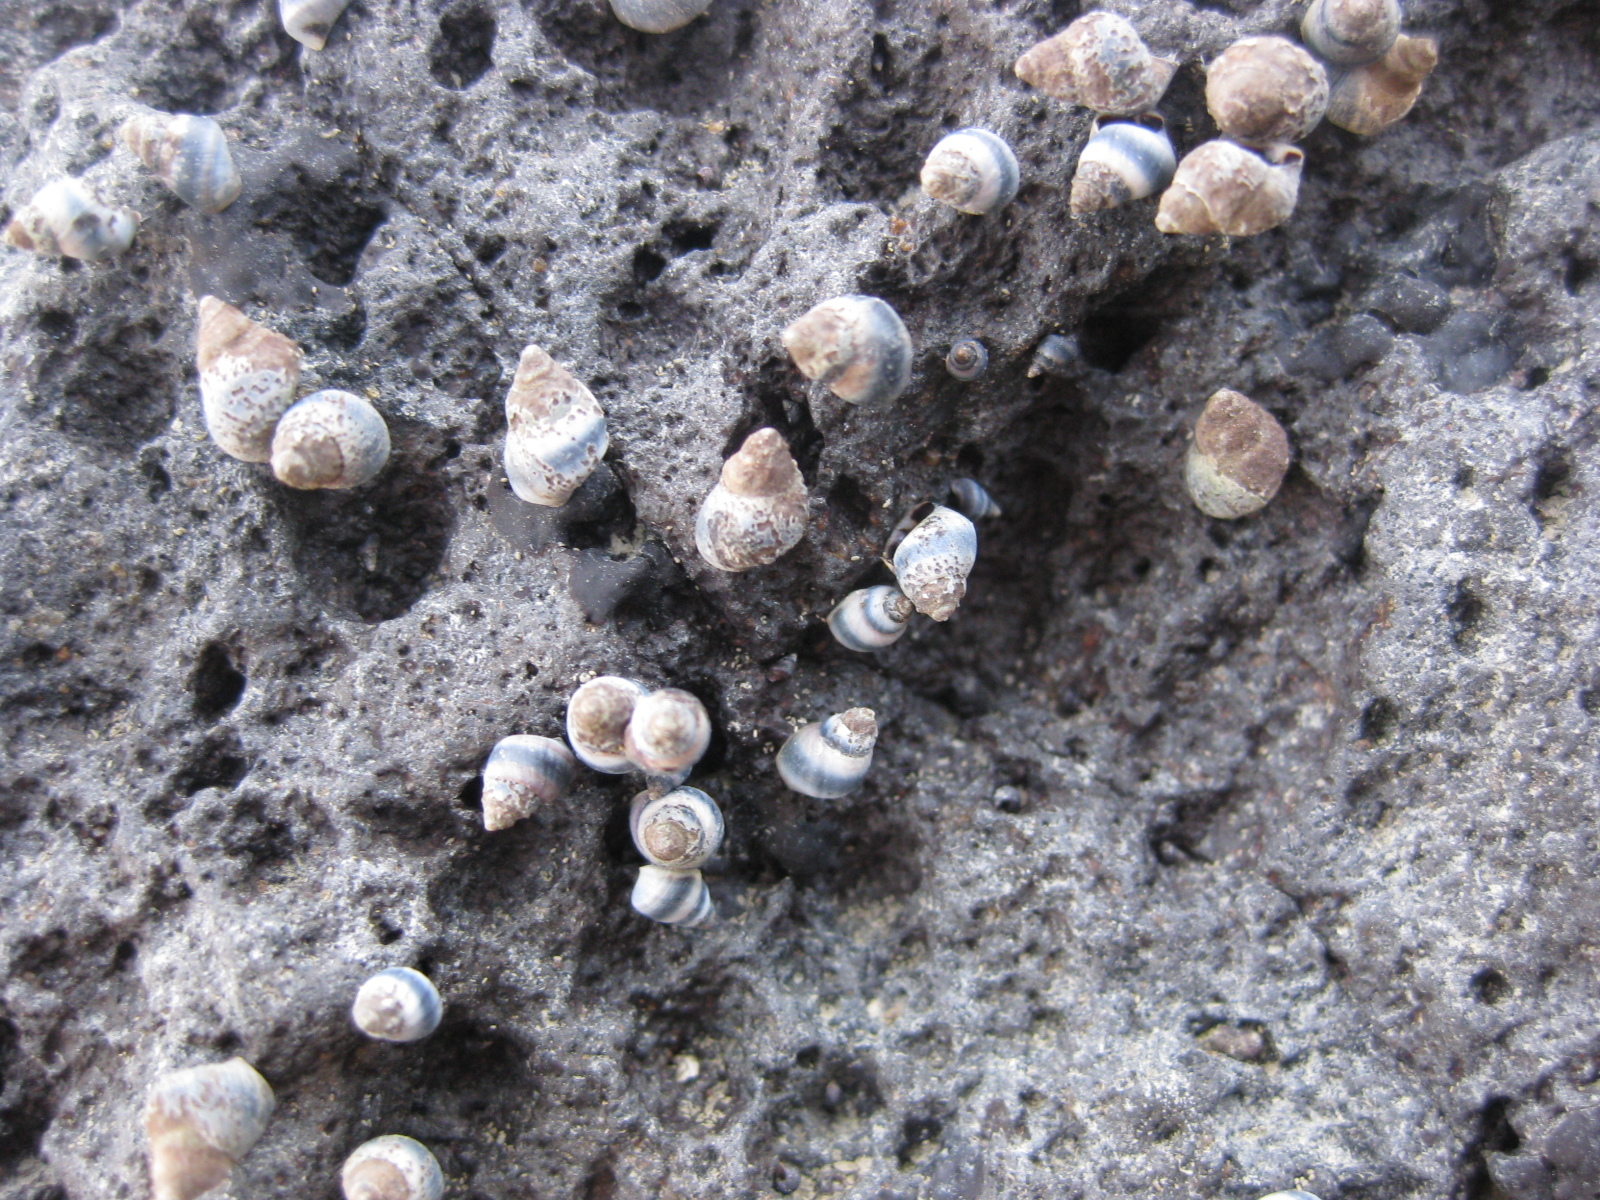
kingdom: Animalia
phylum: Mollusca
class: Gastropoda
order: Littorinimorpha
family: Littorinidae
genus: Austrolittorina
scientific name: Austrolittorina antipodum
